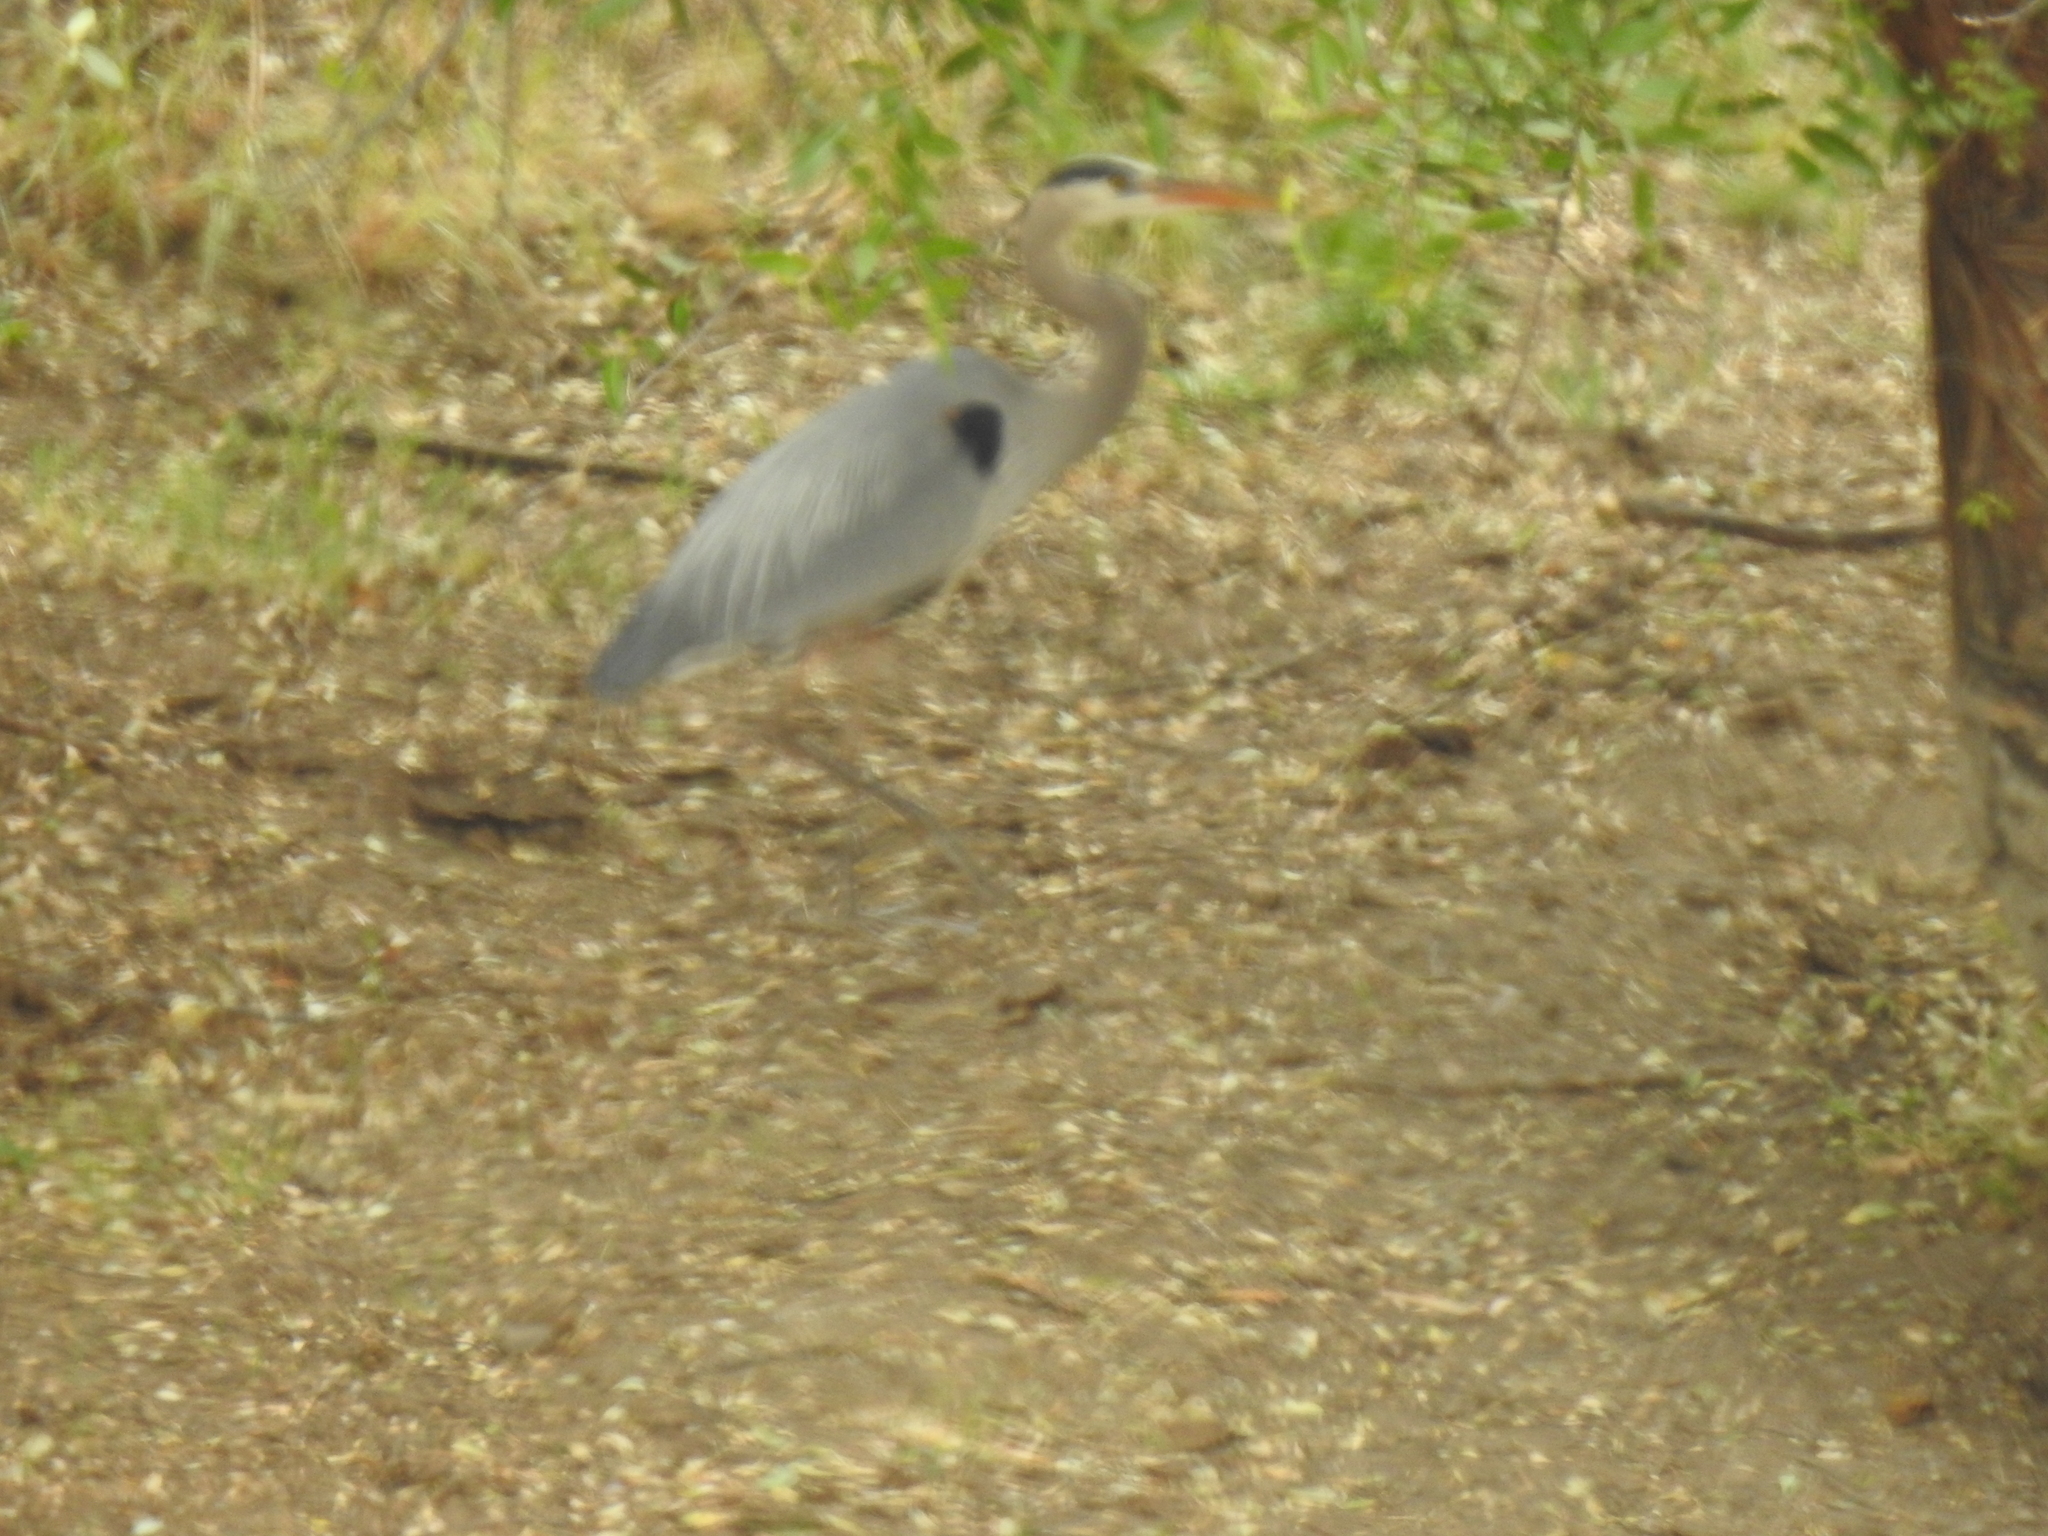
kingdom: Animalia
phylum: Chordata
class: Aves
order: Pelecaniformes
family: Ardeidae
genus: Ardea
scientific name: Ardea herodias
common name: Great blue heron
